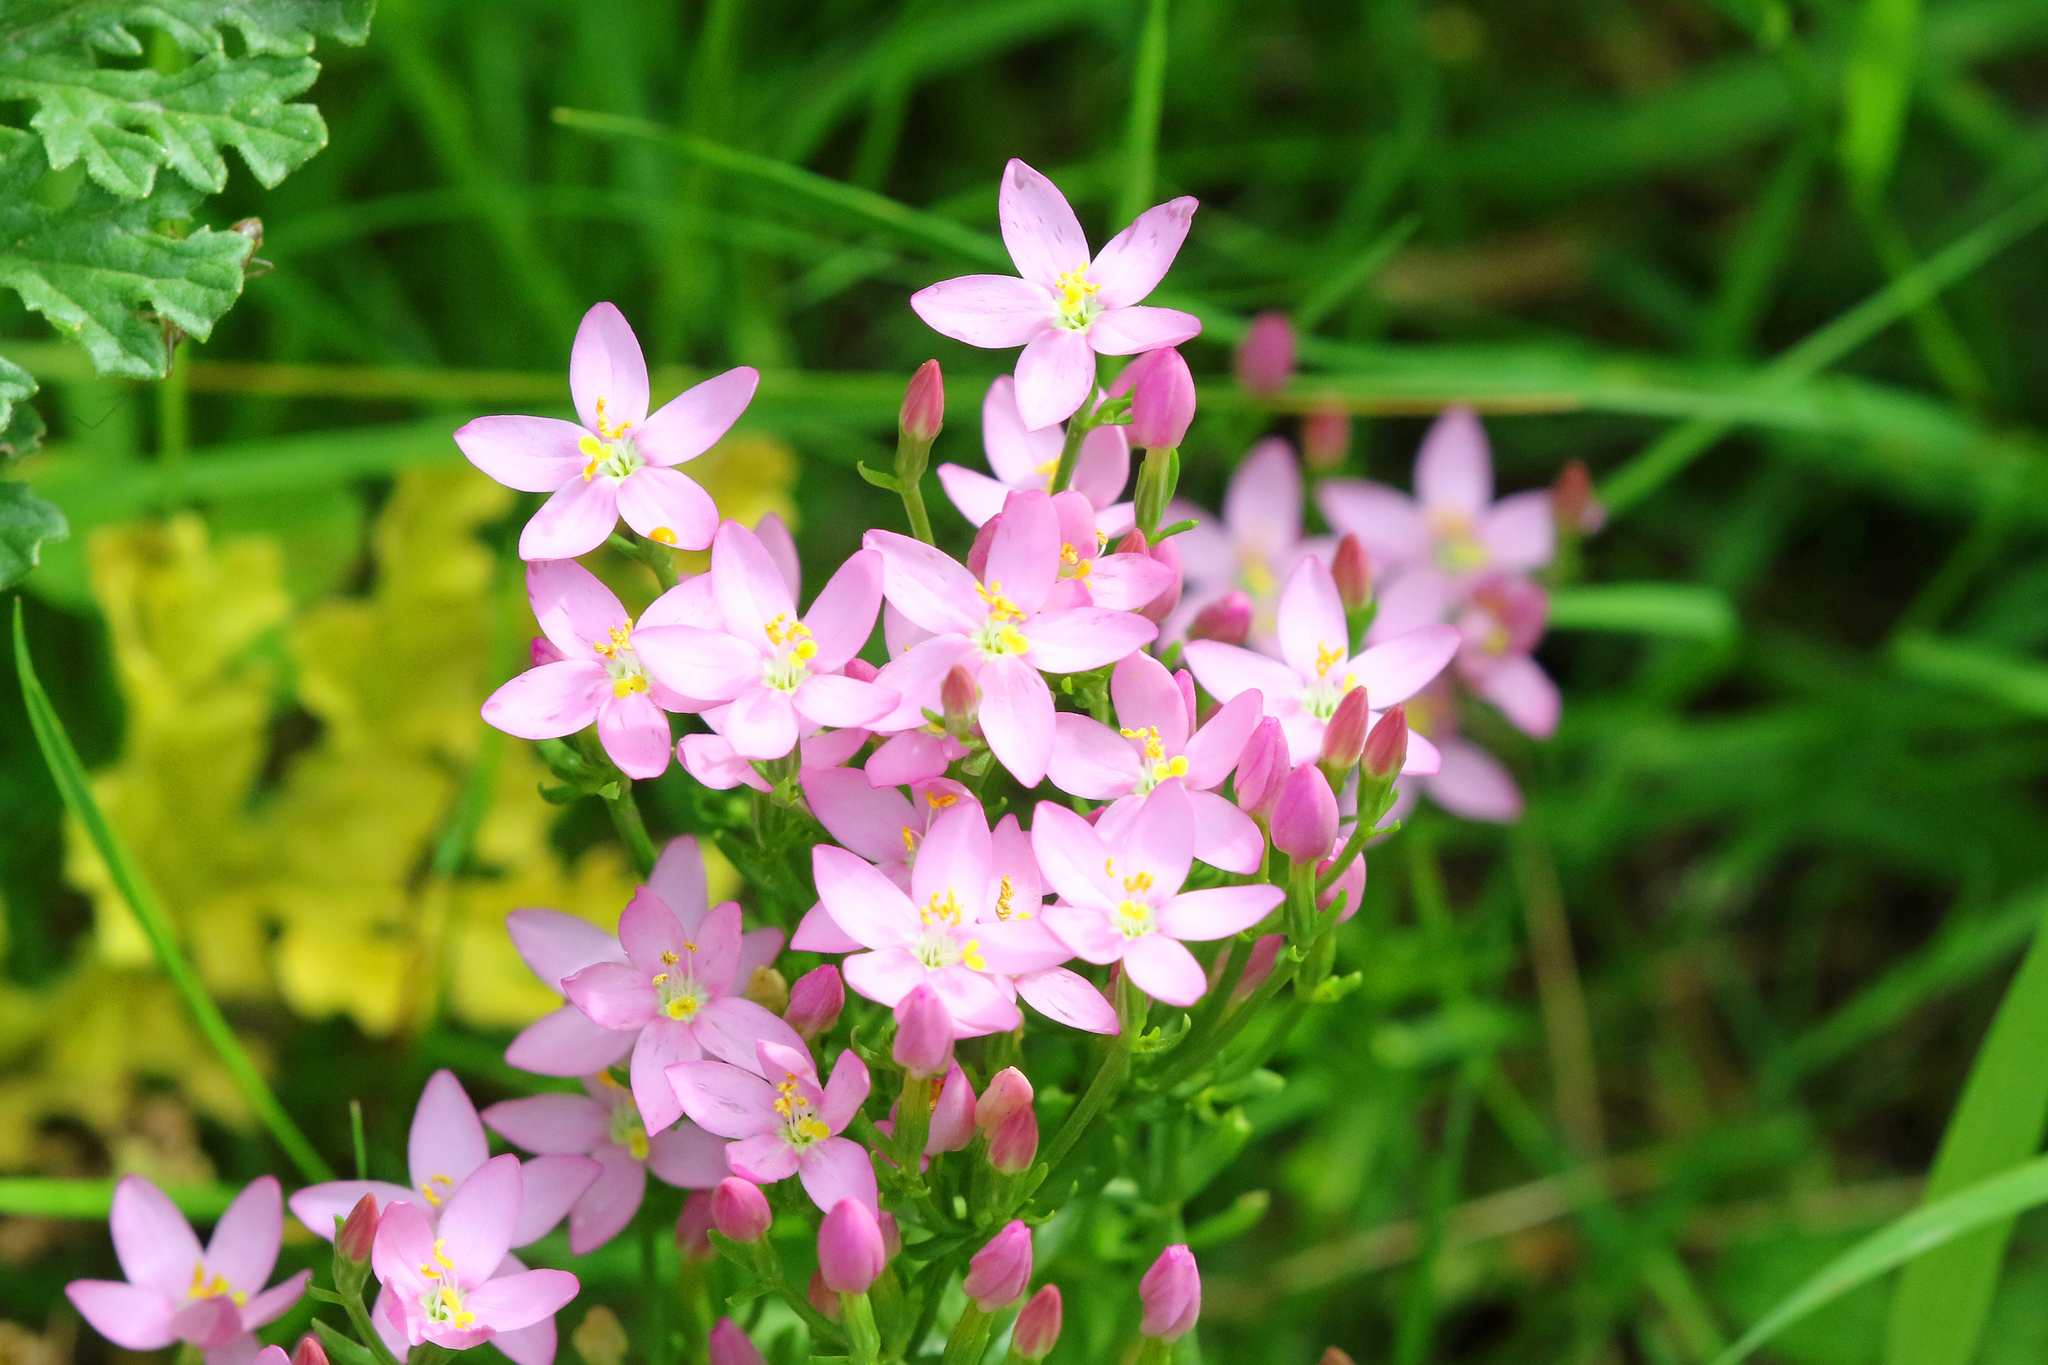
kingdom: Plantae
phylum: Tracheophyta
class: Magnoliopsida
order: Gentianales
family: Gentianaceae
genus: Centaurium
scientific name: Centaurium erythraea
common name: Common centaury
